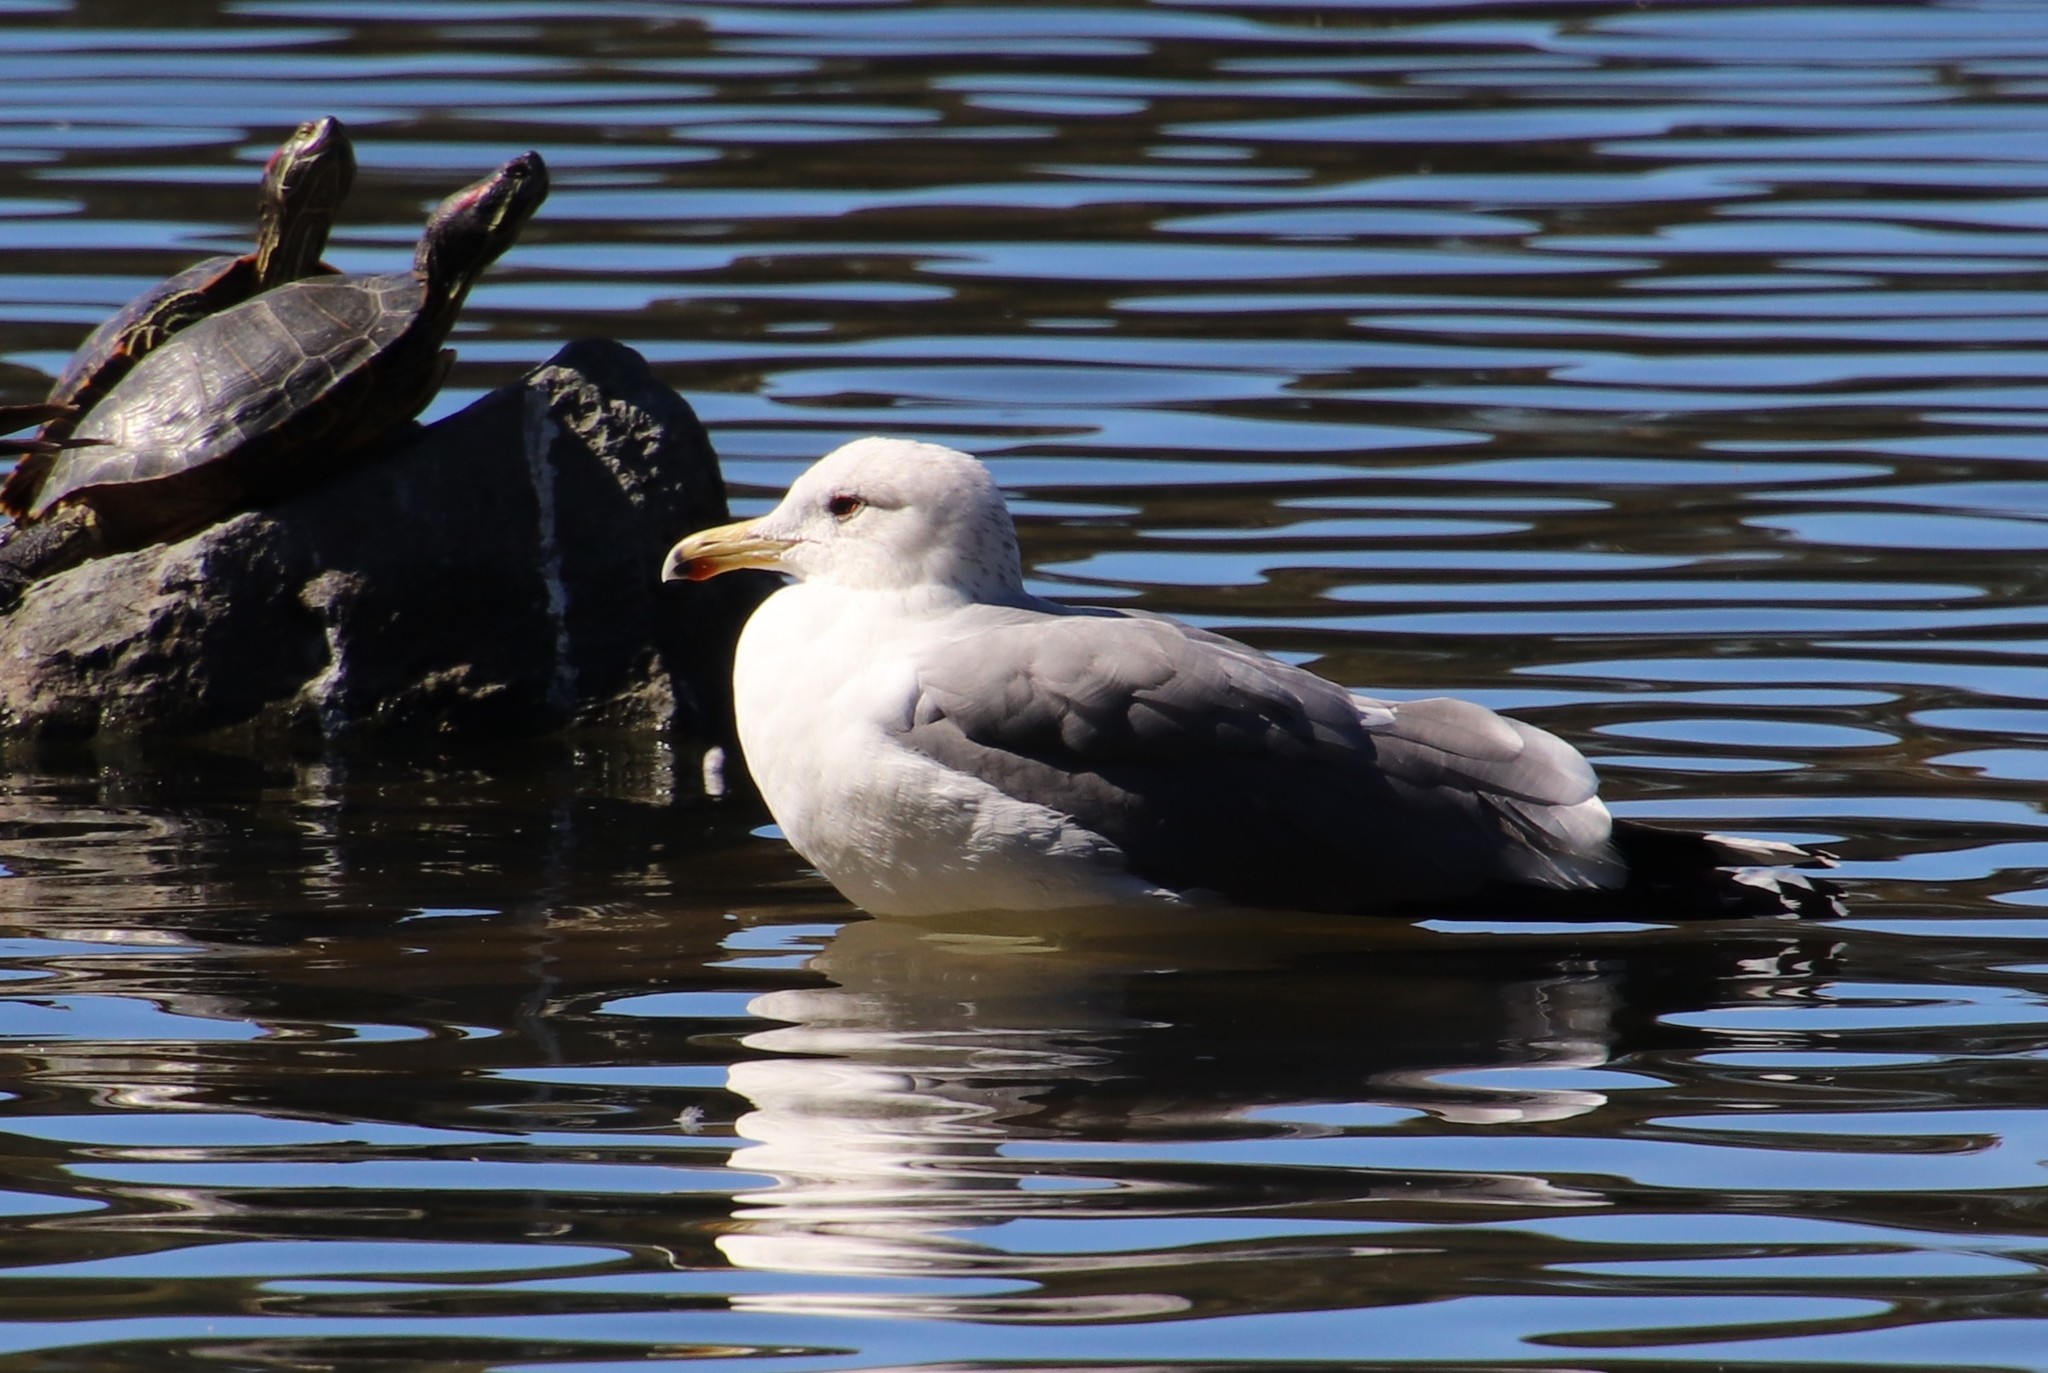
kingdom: Animalia
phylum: Chordata
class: Aves
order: Charadriiformes
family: Laridae
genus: Larus
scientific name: Larus californicus
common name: California gull
